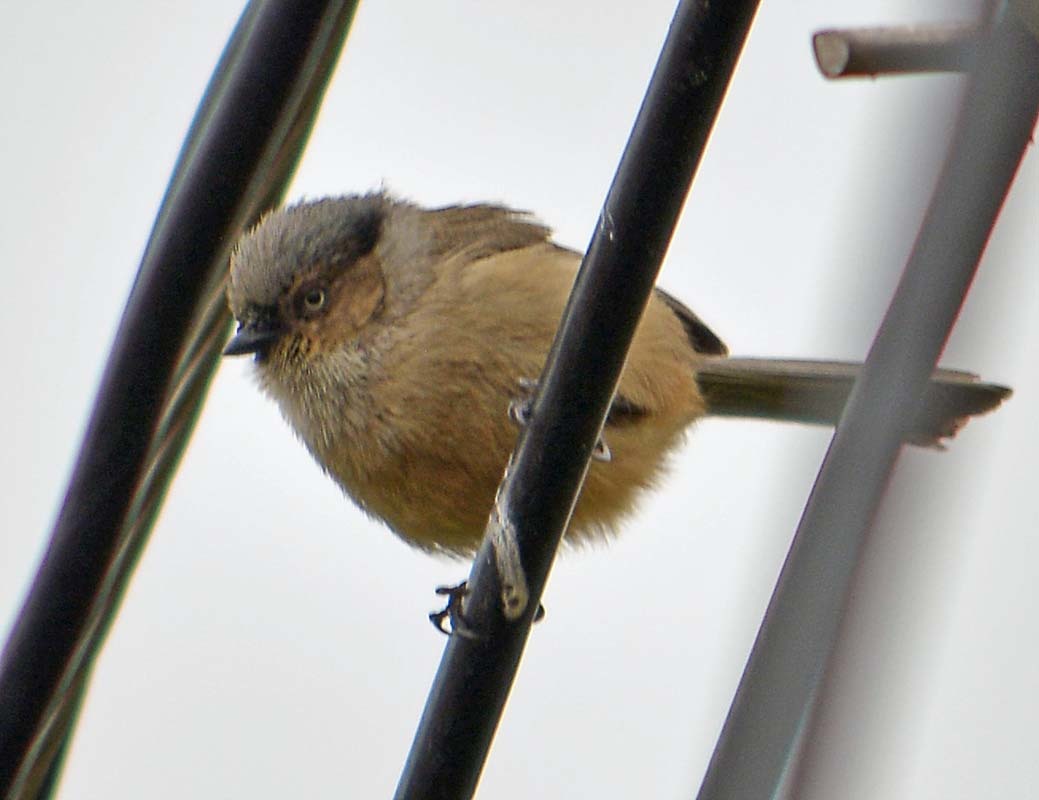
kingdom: Animalia
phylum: Chordata
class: Aves
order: Passeriformes
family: Aegithalidae
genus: Psaltriparus
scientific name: Psaltriparus minimus
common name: American bushtit
